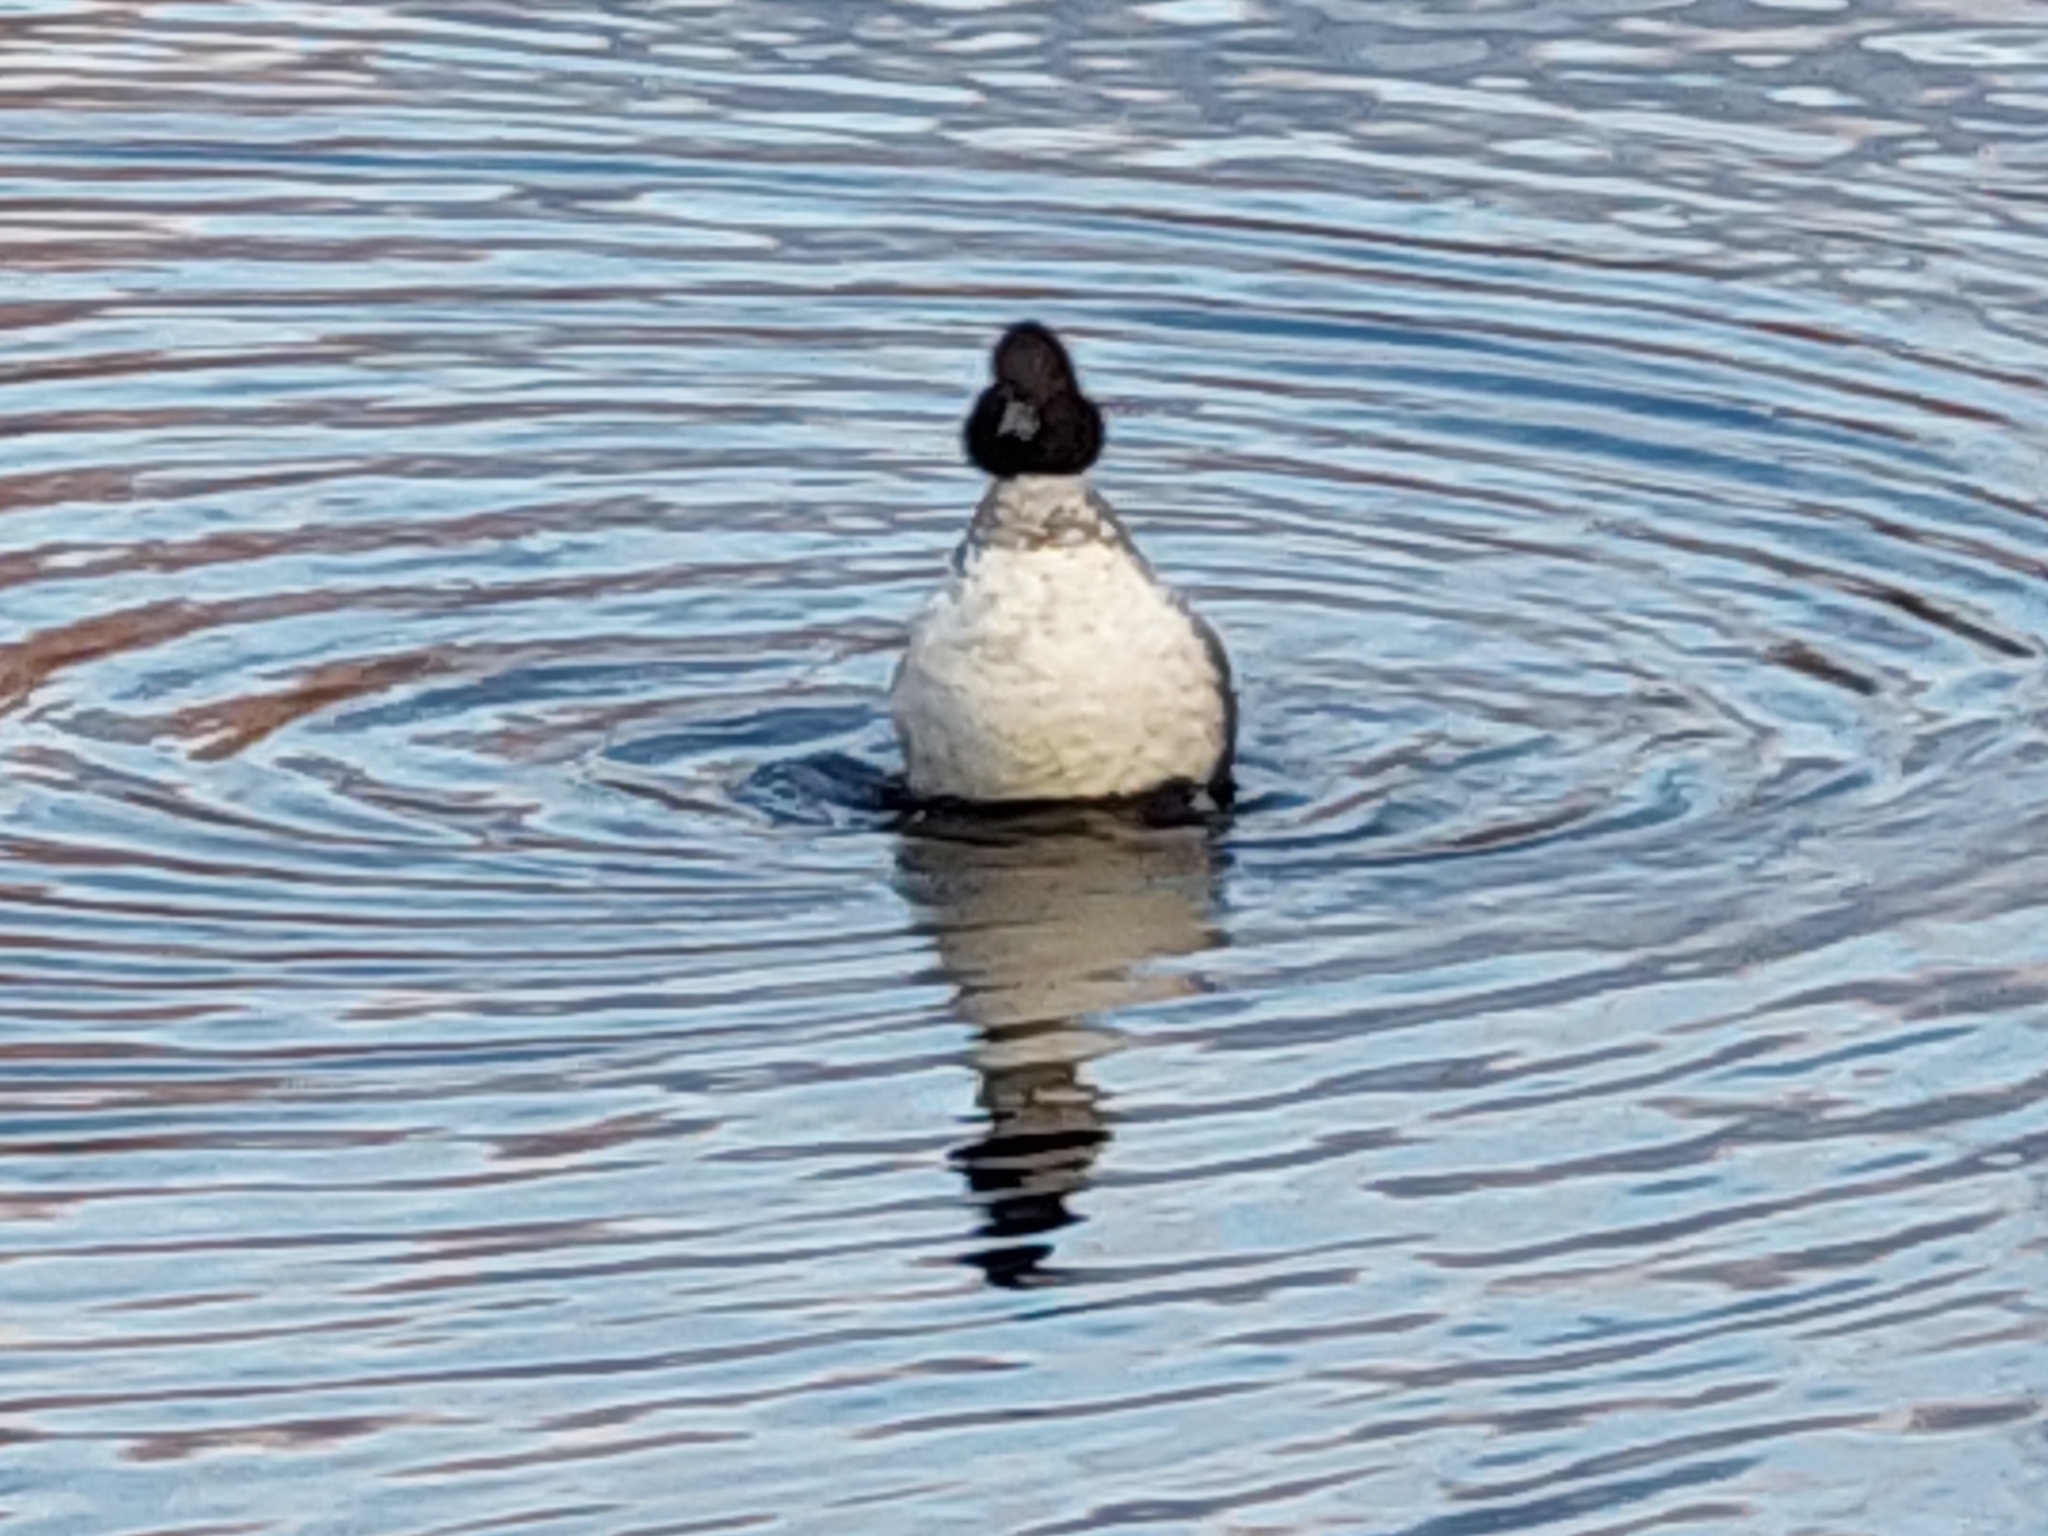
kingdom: Animalia
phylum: Chordata
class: Aves
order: Anseriformes
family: Anatidae
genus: Bucephala
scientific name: Bucephala clangula
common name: Common goldeneye
